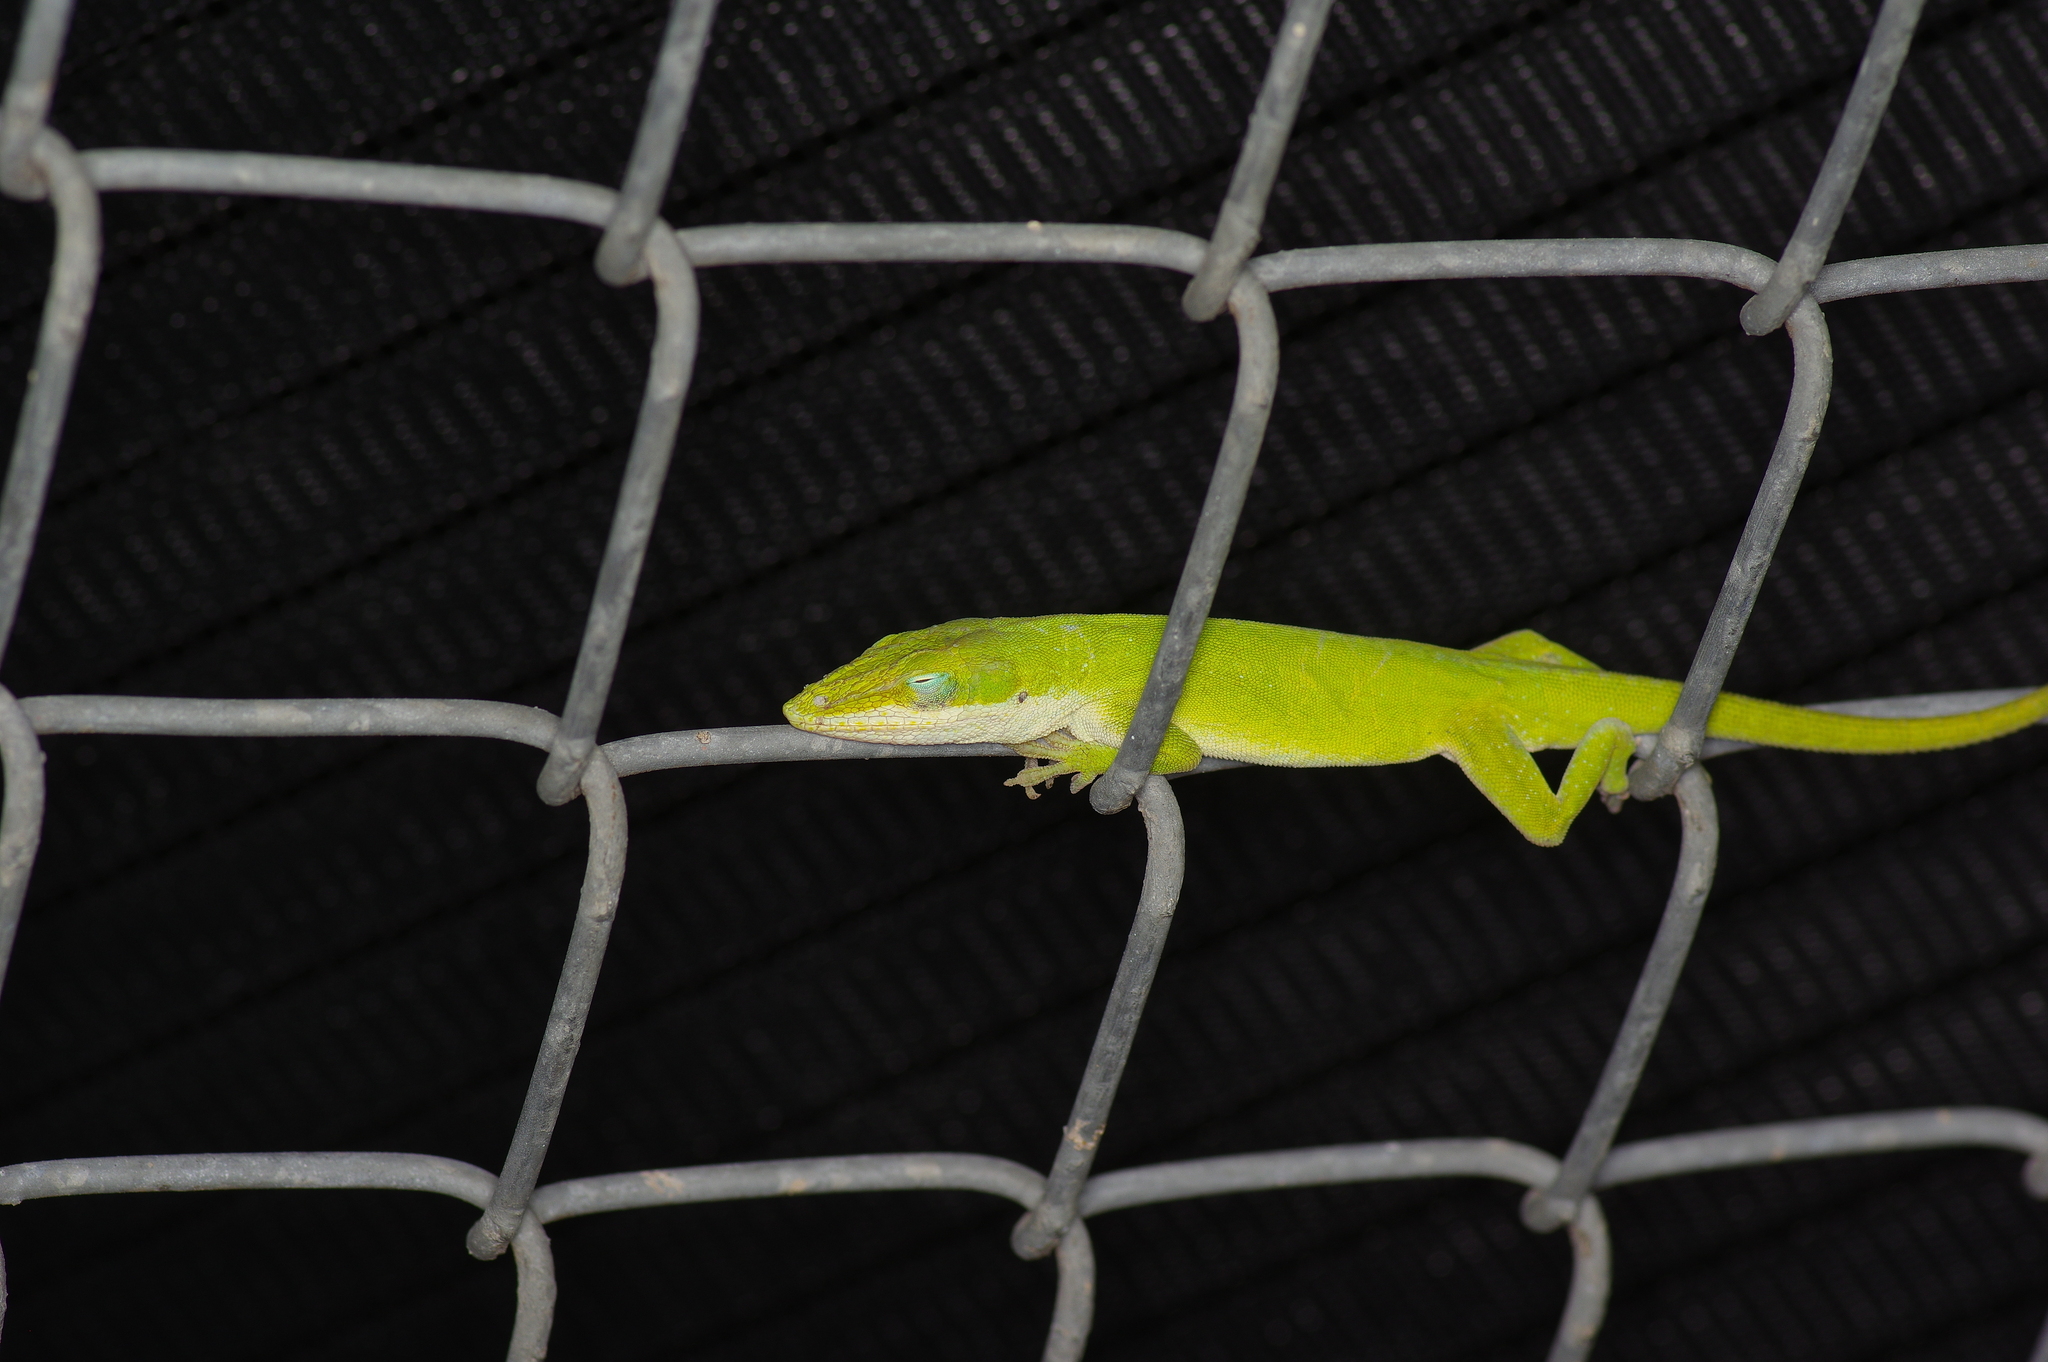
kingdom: Animalia
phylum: Chordata
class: Squamata
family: Dactyloidae
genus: Anolis
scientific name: Anolis carolinensis
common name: Green anole
